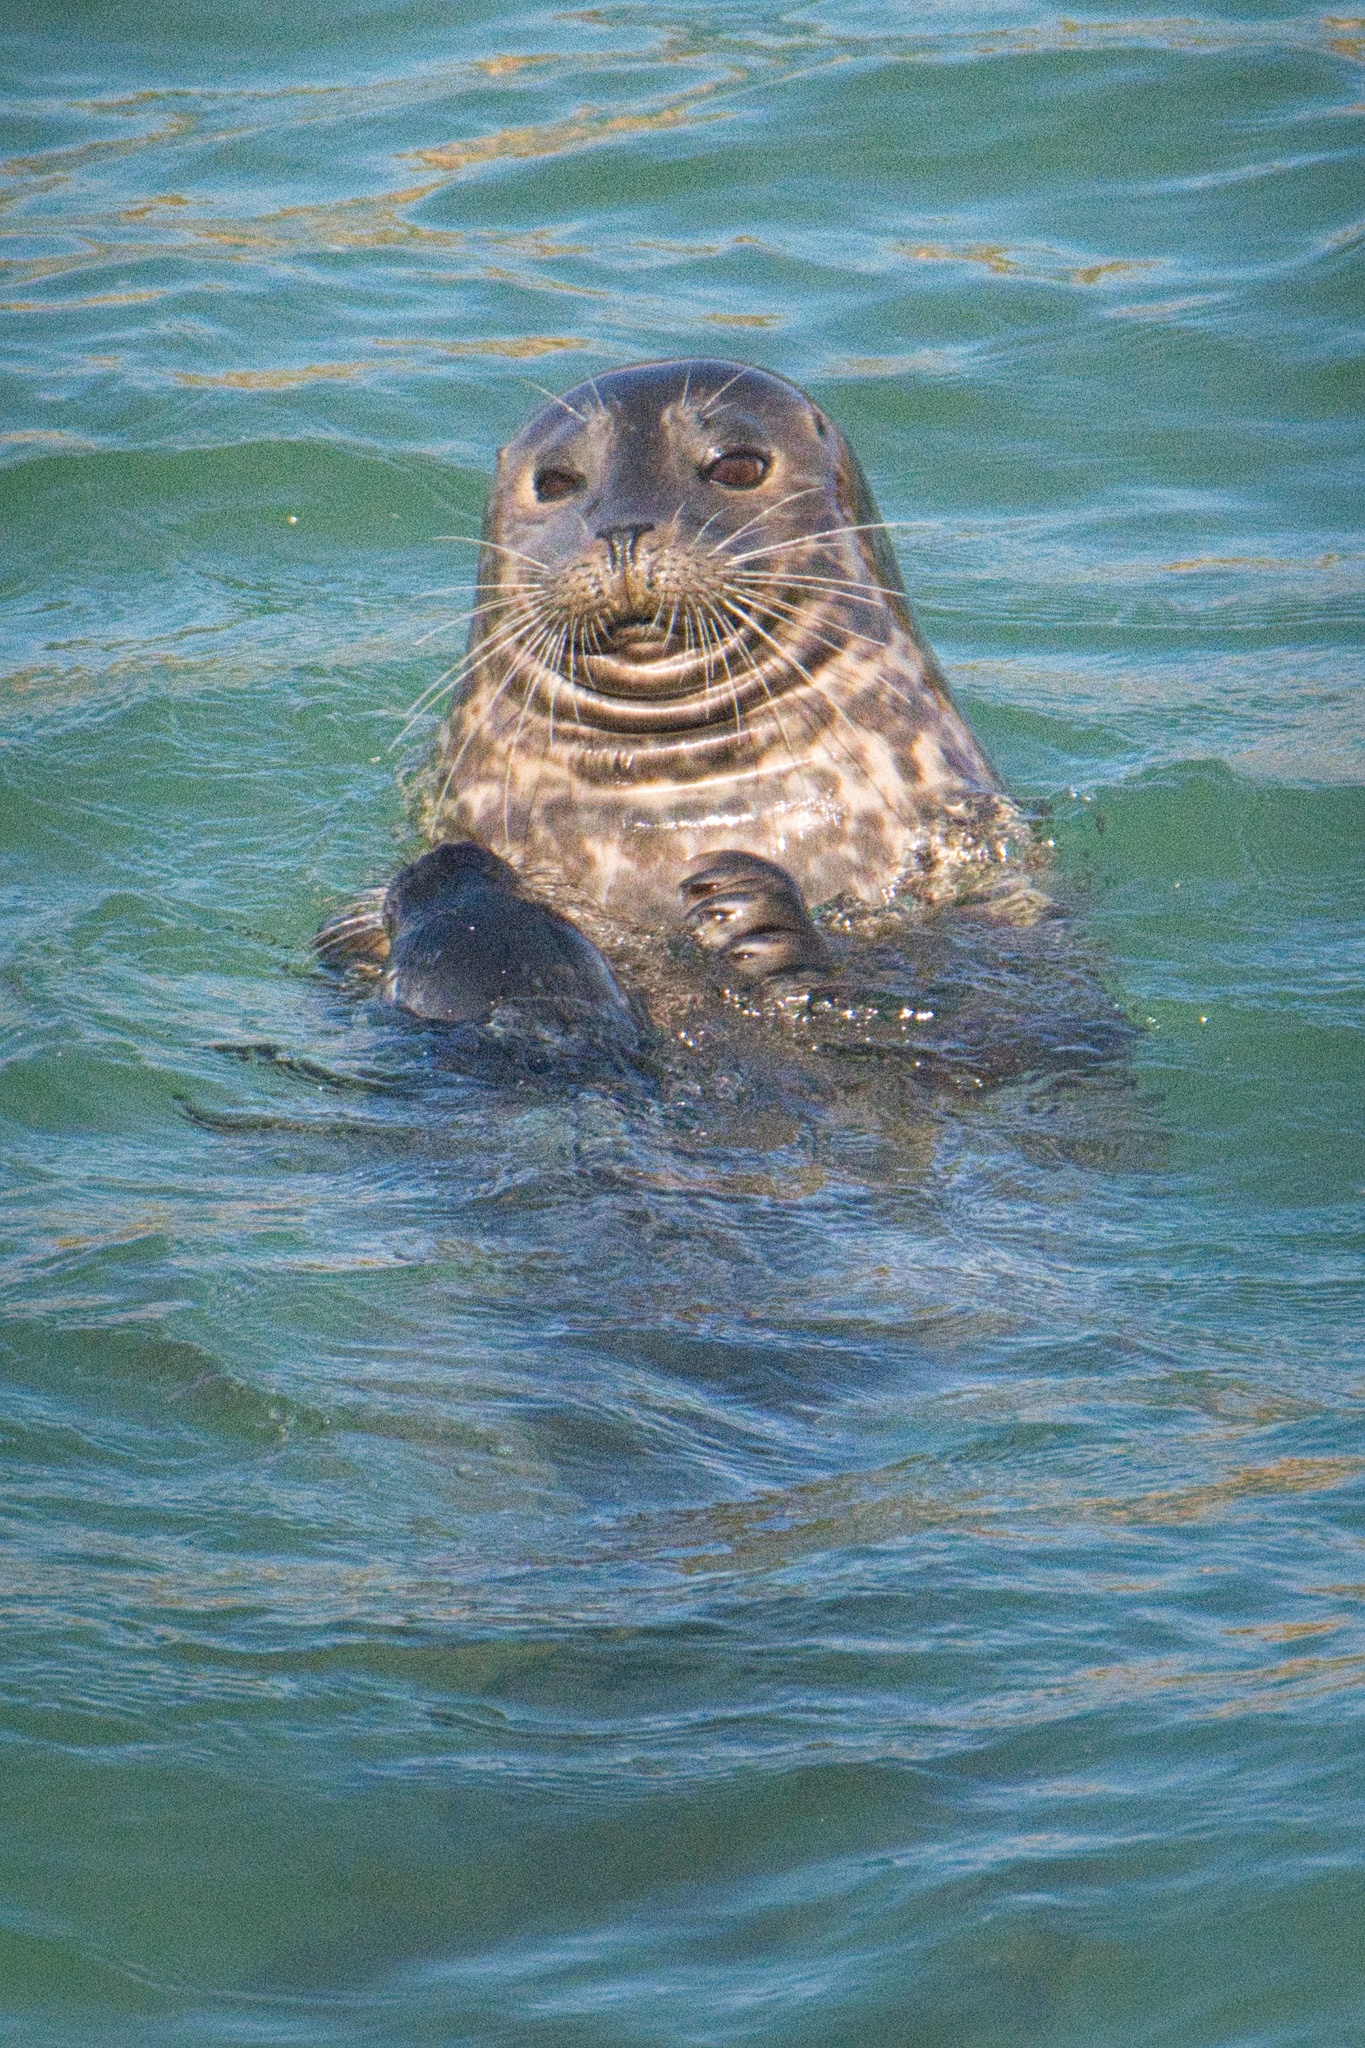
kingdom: Animalia
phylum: Chordata
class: Mammalia
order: Carnivora
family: Phocidae
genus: Phoca
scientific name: Phoca vitulina
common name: Harbor seal
